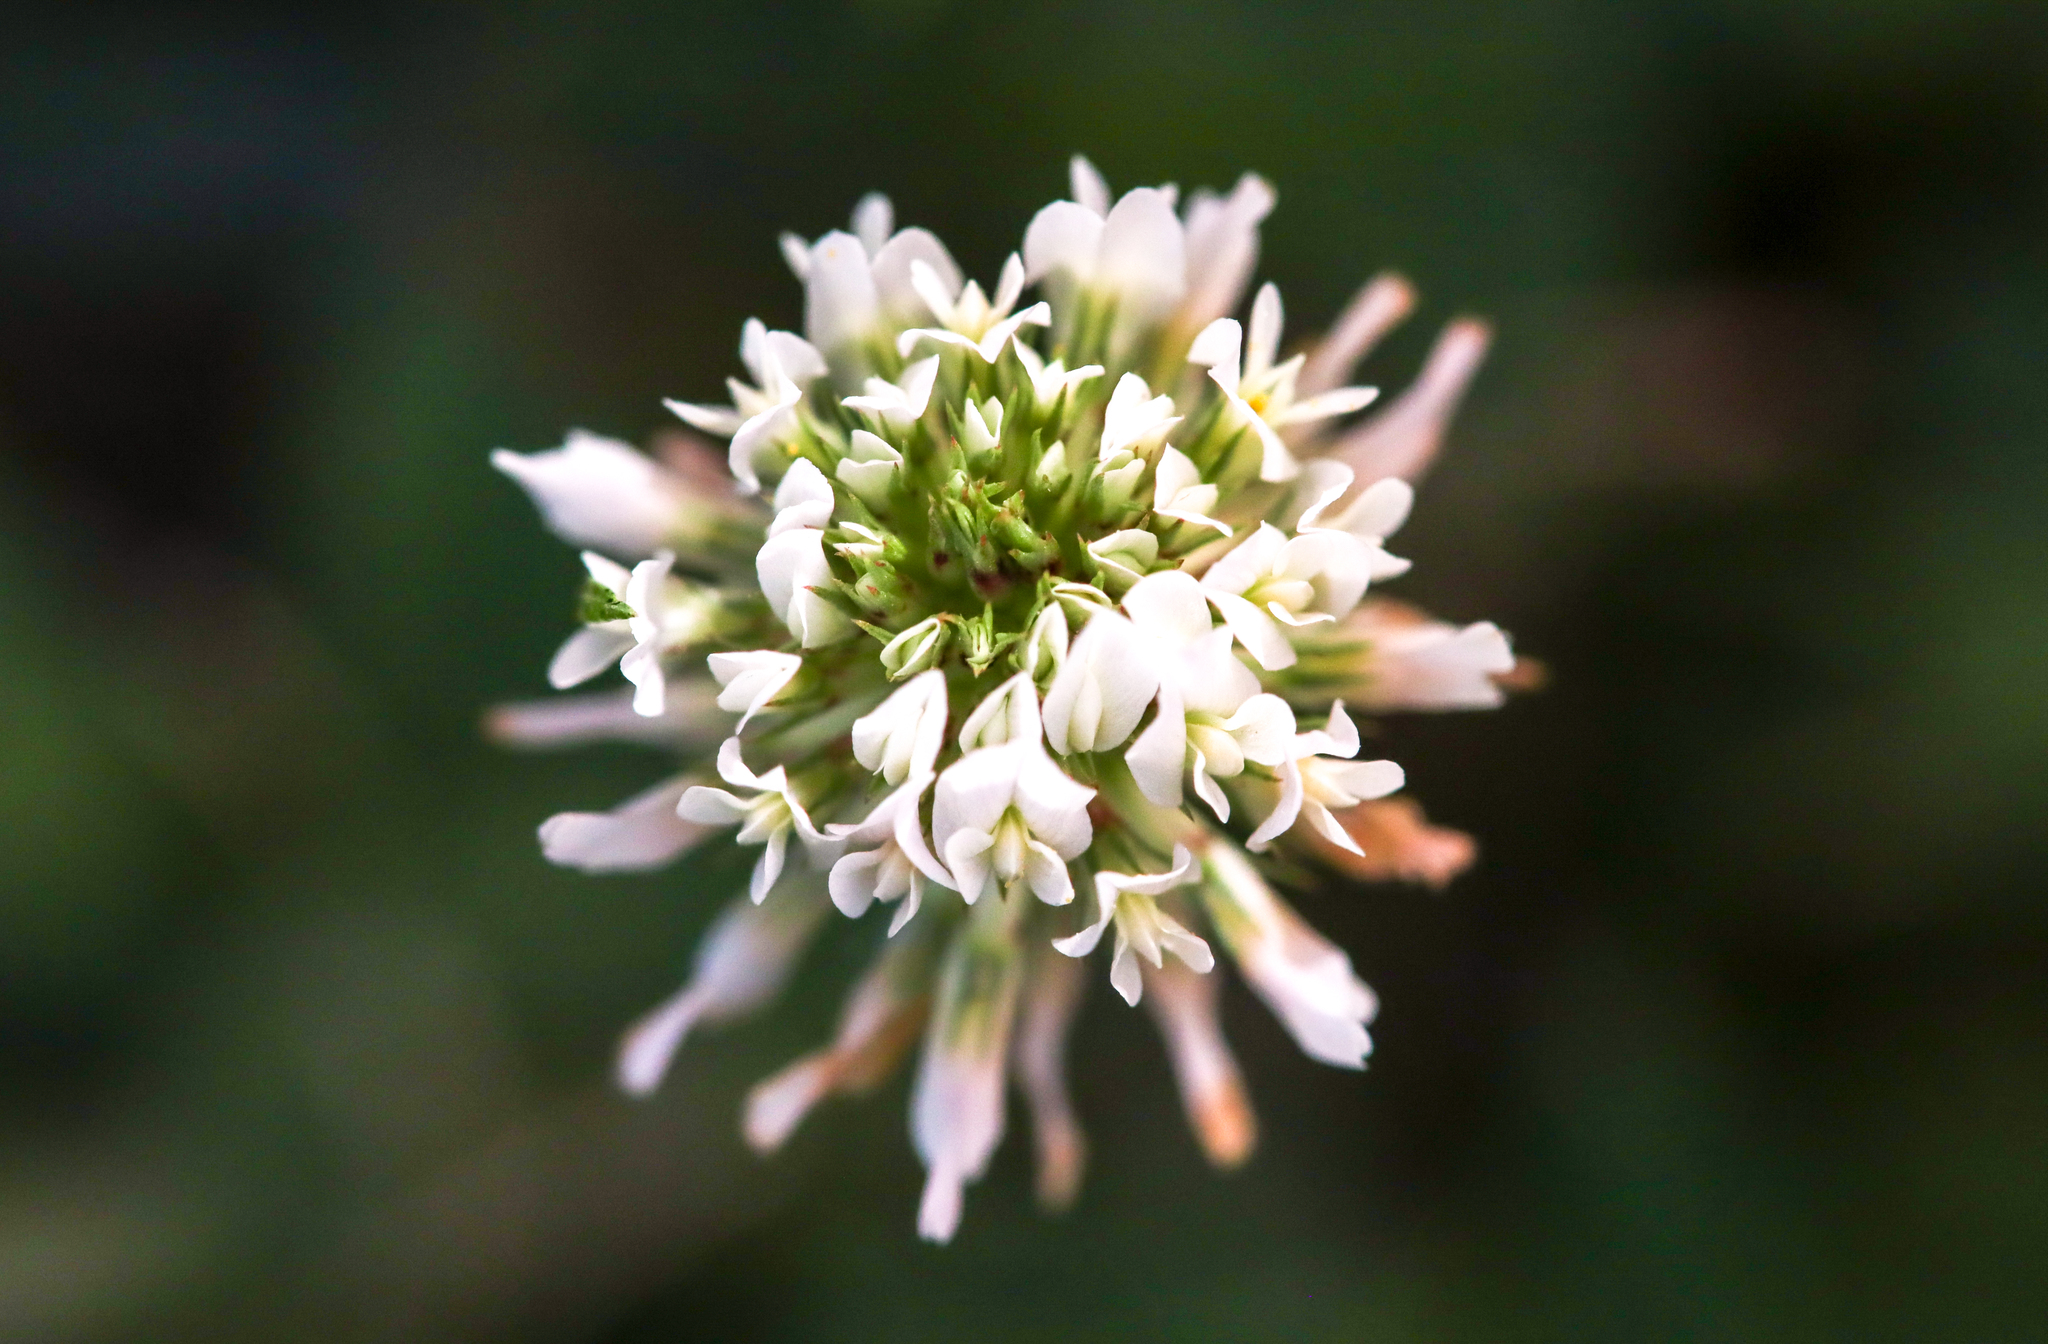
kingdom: Plantae
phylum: Tracheophyta
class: Magnoliopsida
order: Fabales
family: Fabaceae
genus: Trifolium
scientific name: Trifolium repens
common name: White clover
